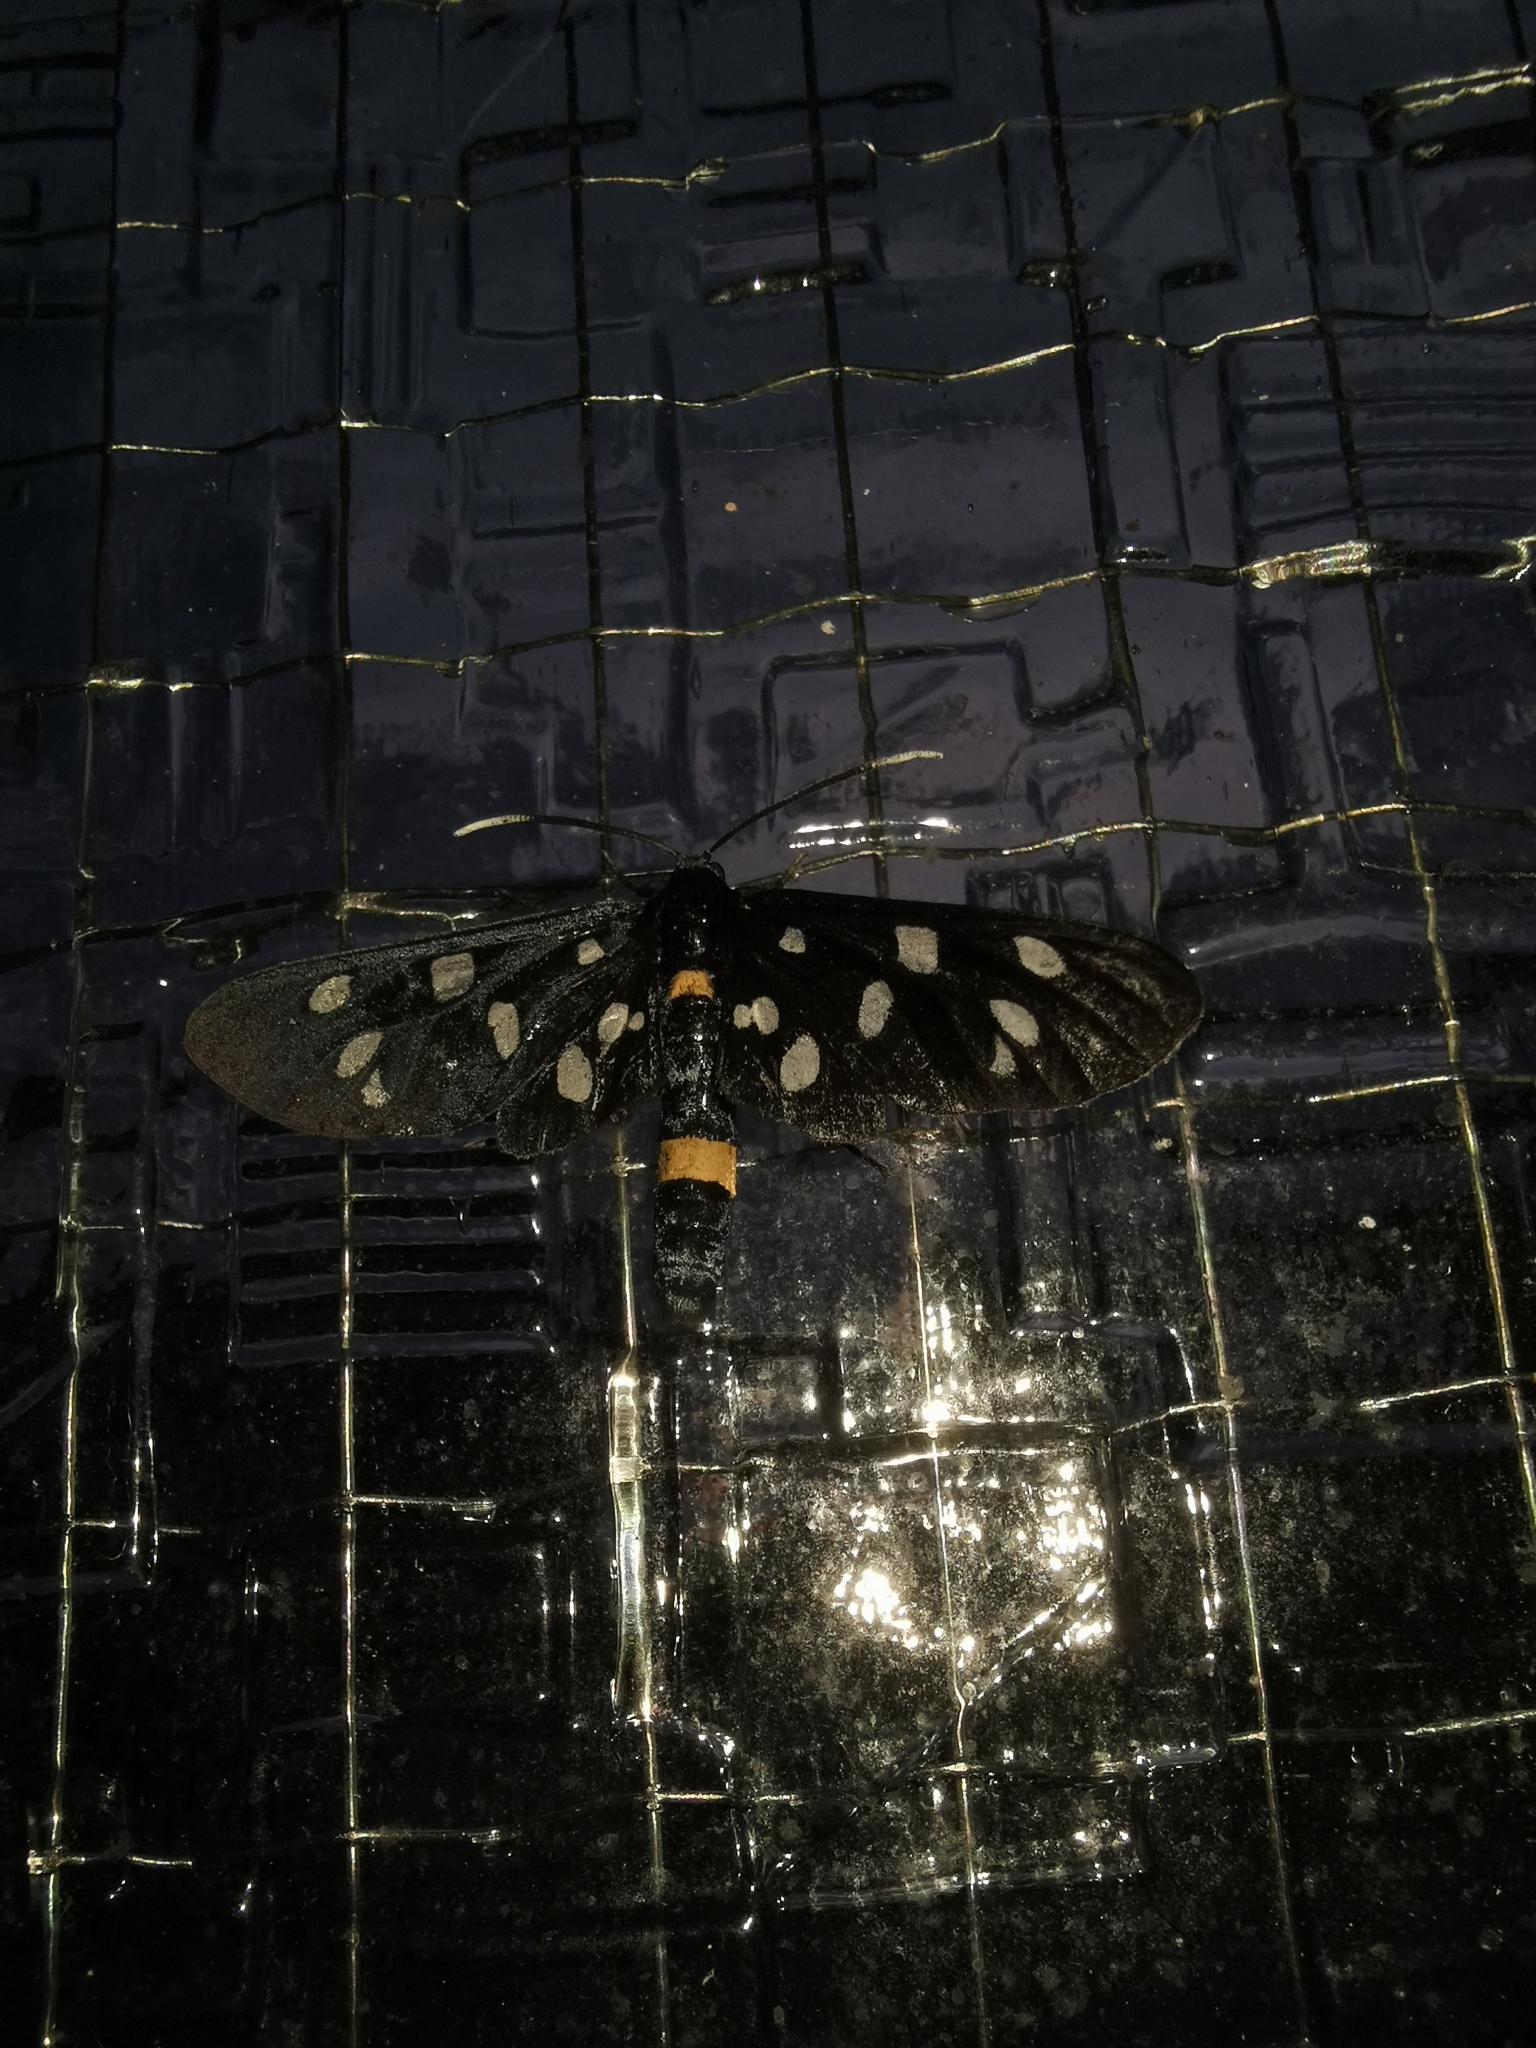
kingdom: Animalia
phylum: Arthropoda
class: Insecta
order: Lepidoptera
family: Erebidae
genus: Amata
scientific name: Amata phegea
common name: Nine-spotted
